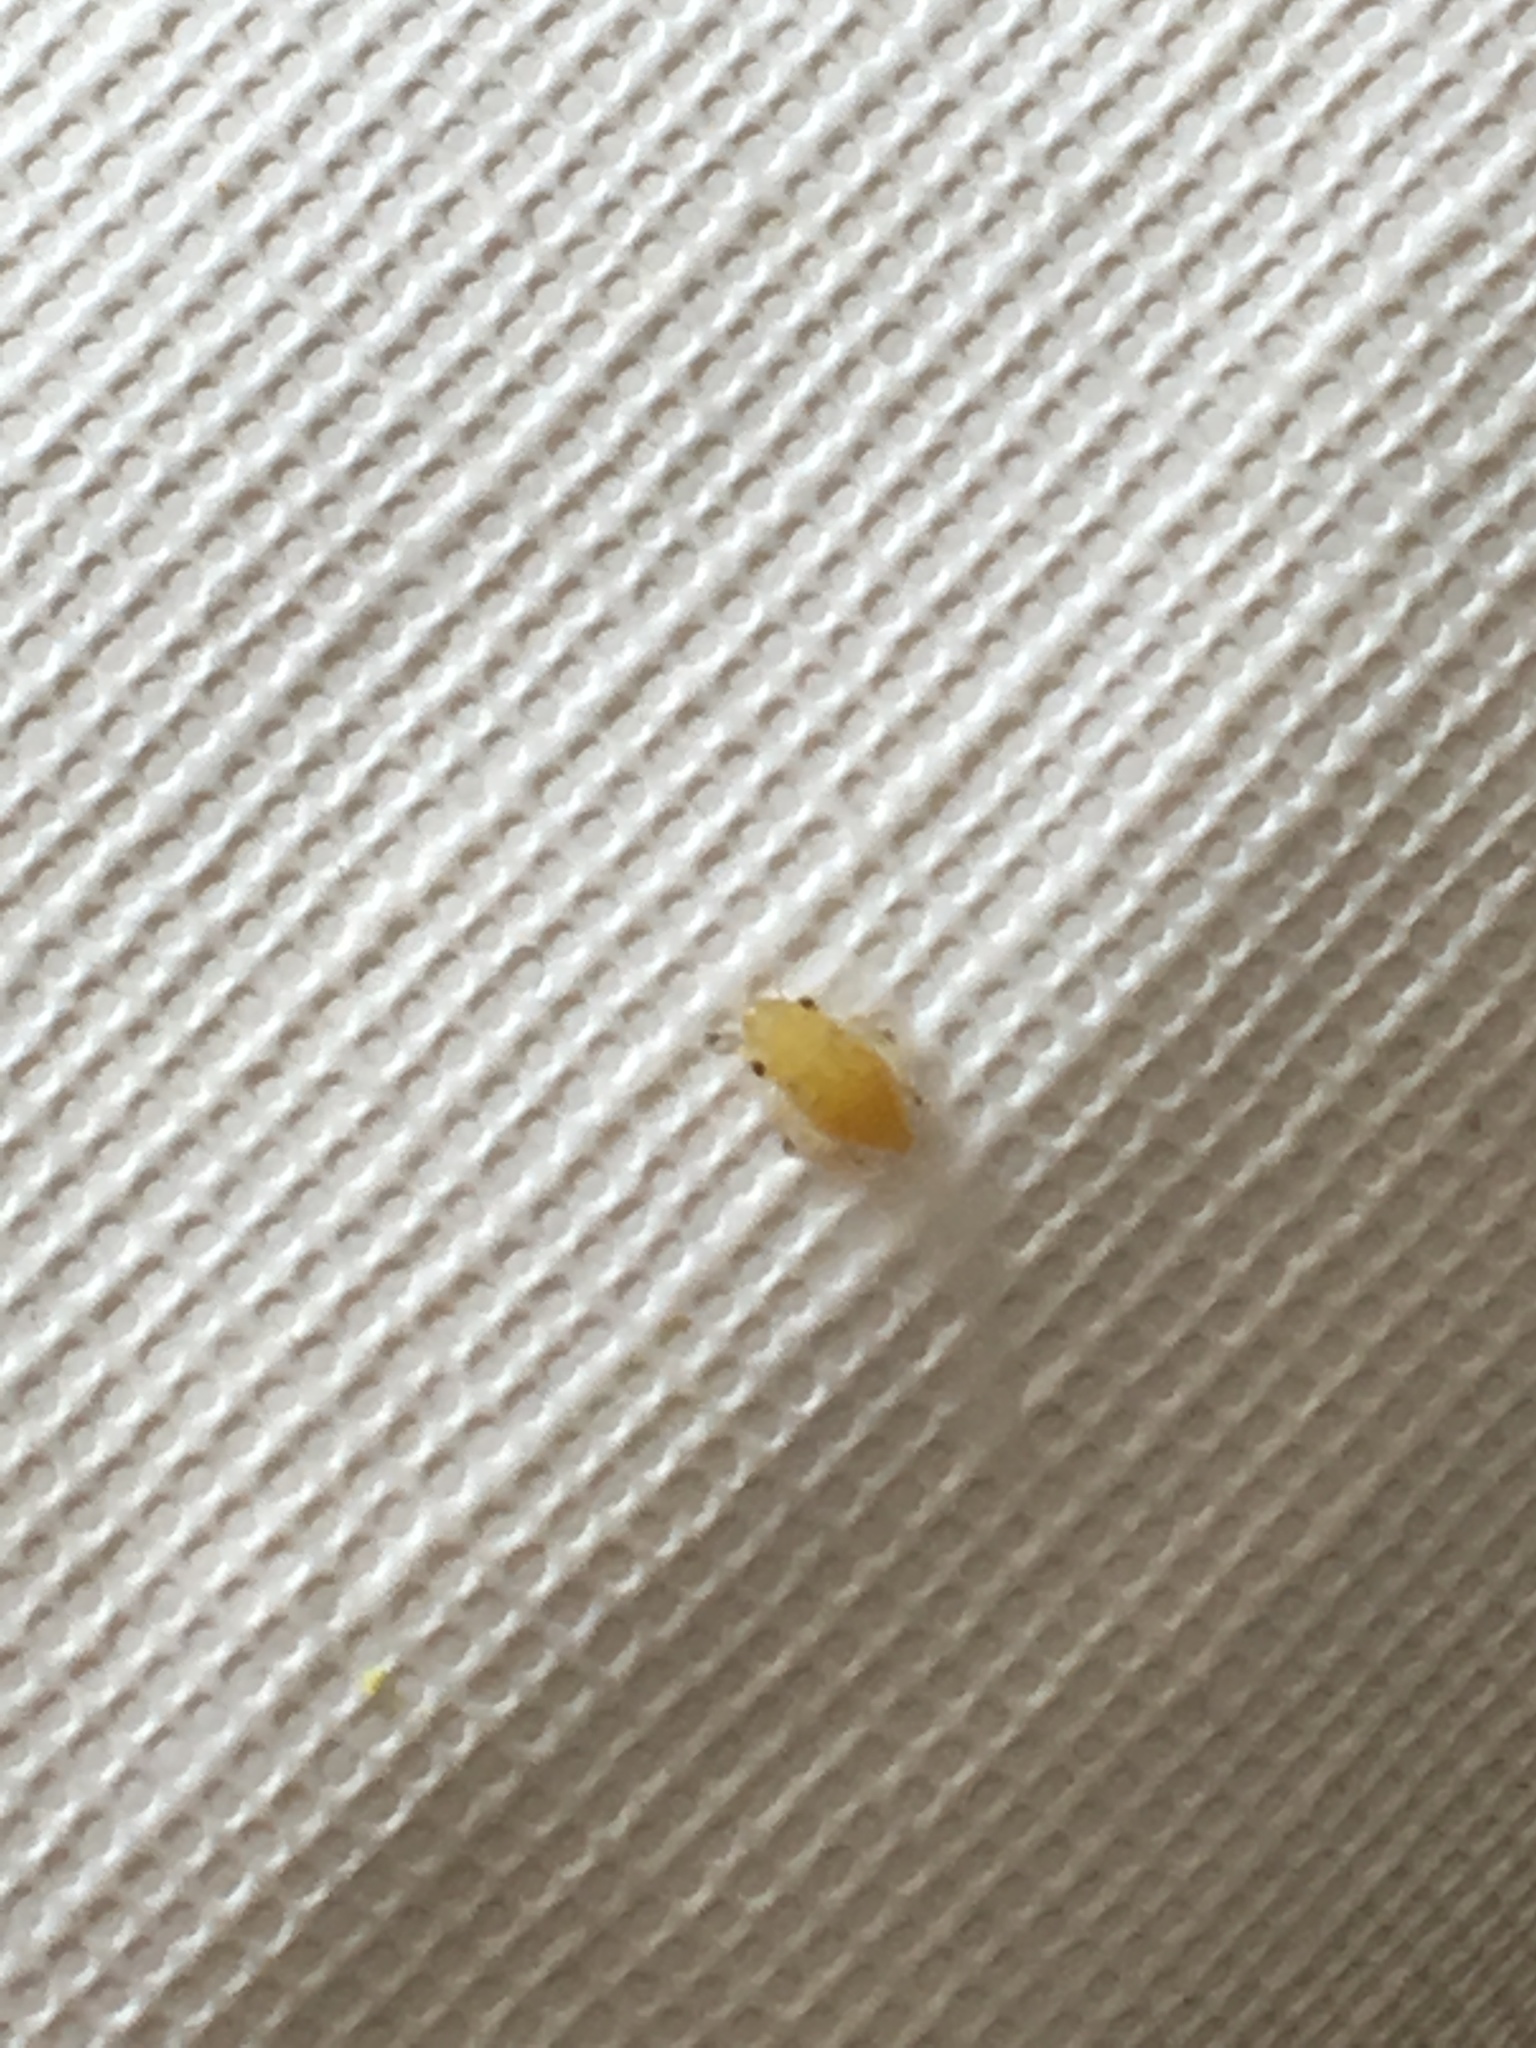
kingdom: Animalia
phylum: Arthropoda
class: Insecta
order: Hemiptera
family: Aphrophoridae
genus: Philaenus
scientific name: Philaenus spumarius
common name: Meadow spittlebug
